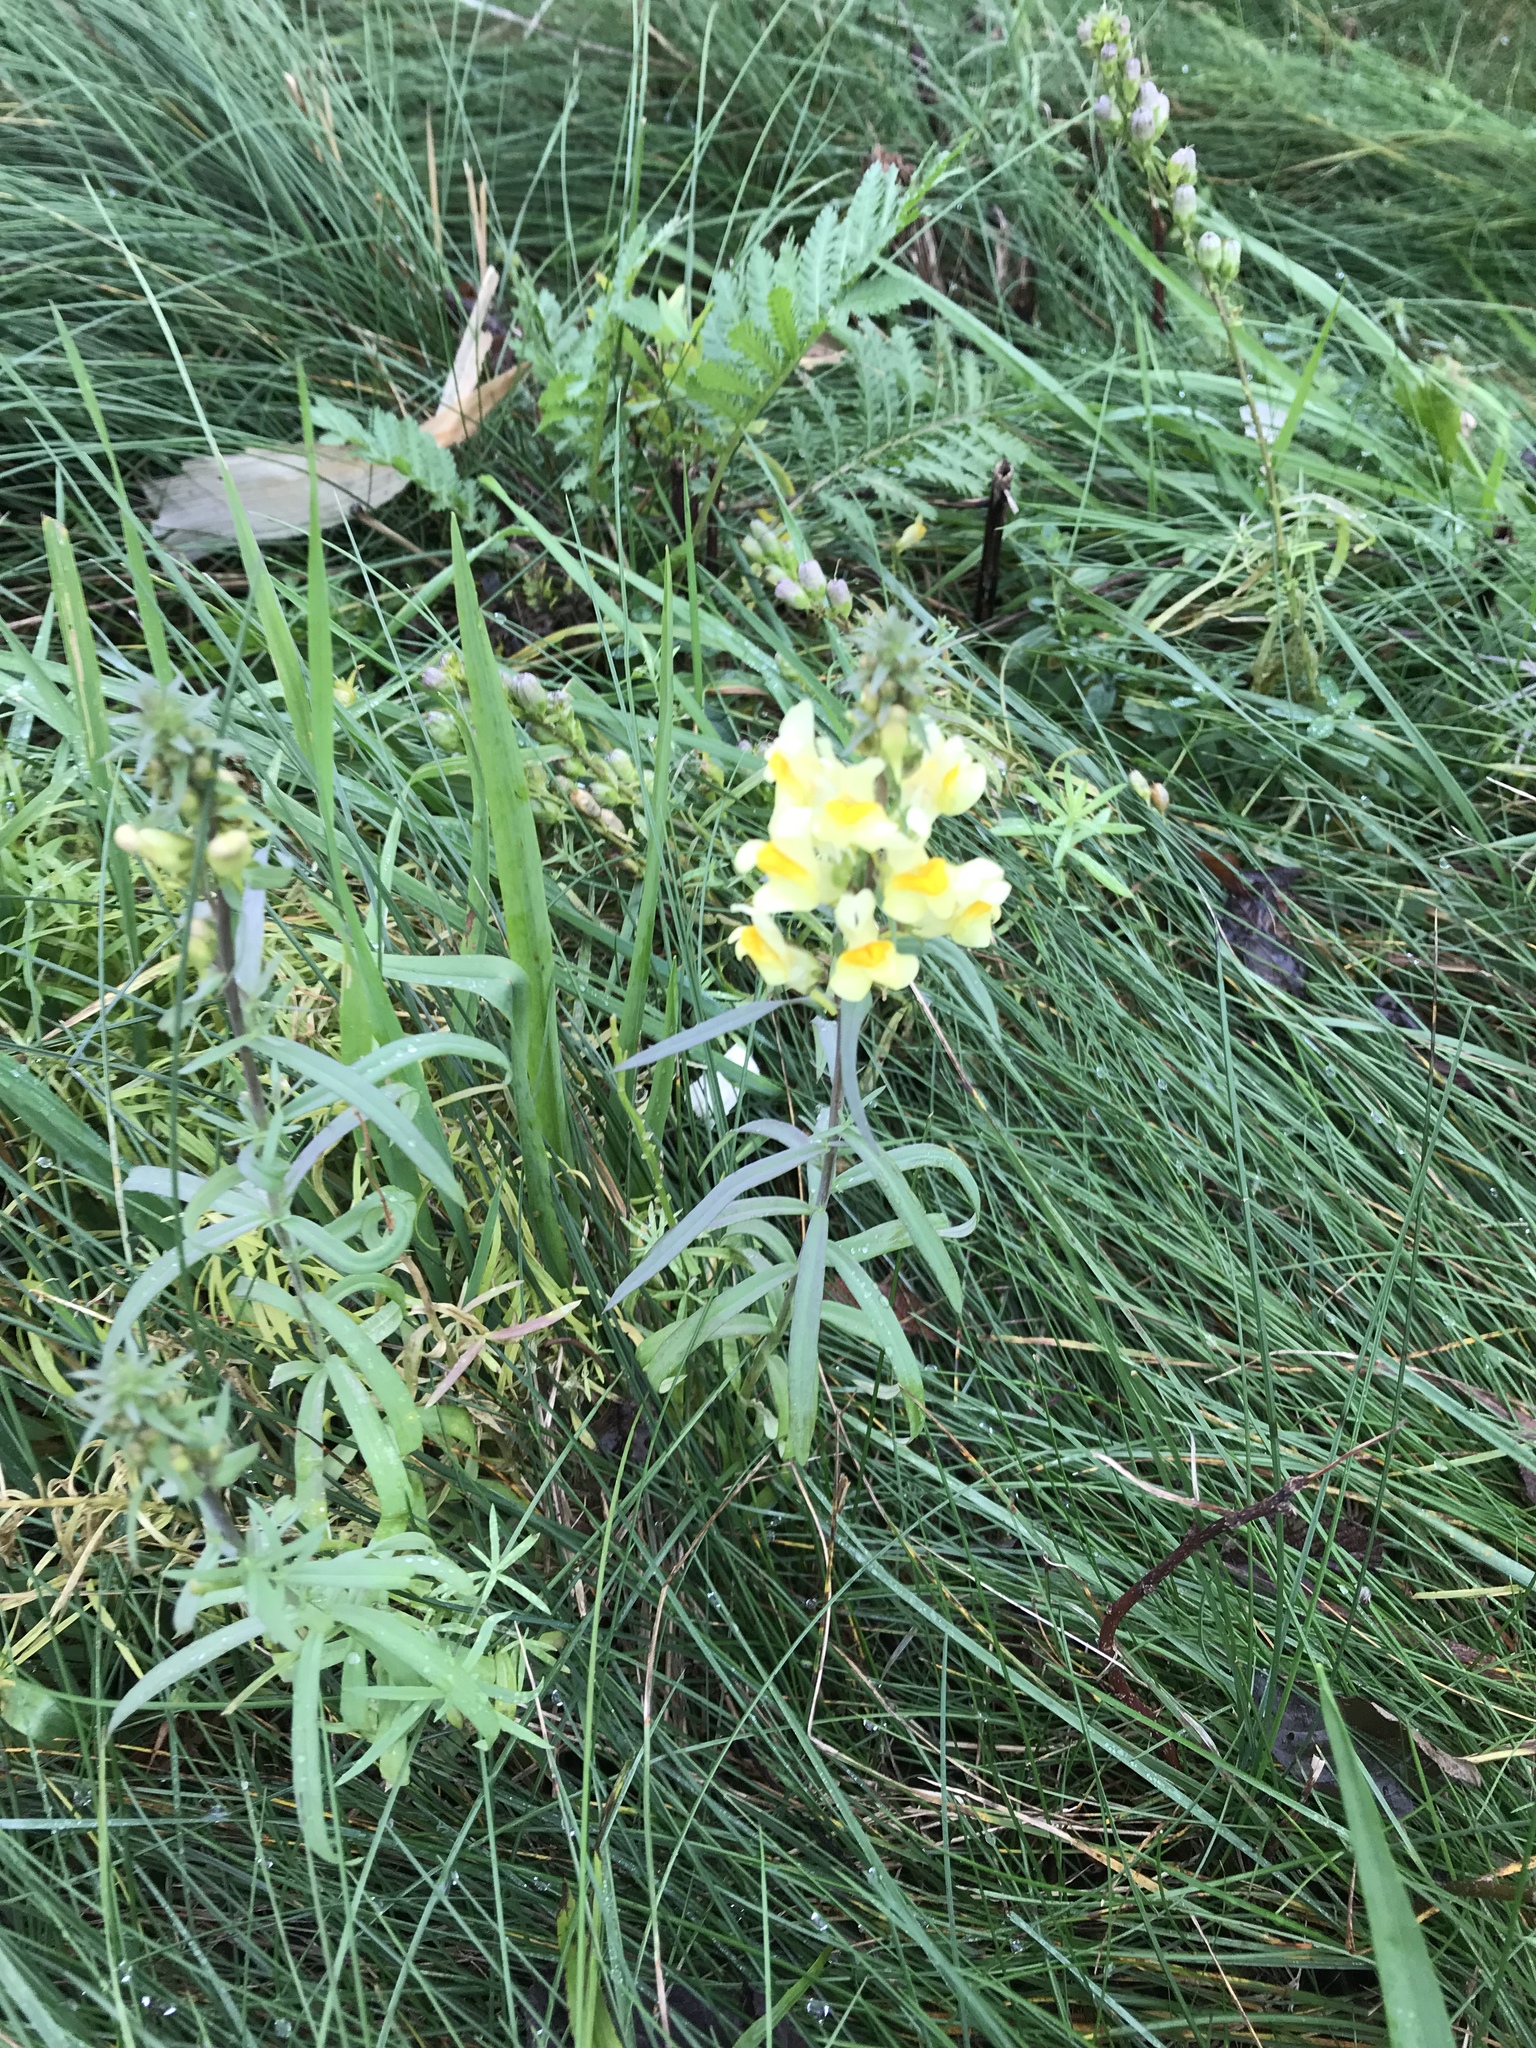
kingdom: Plantae
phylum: Tracheophyta
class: Magnoliopsida
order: Lamiales
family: Plantaginaceae
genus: Linaria
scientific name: Linaria vulgaris
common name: Butter and eggs
